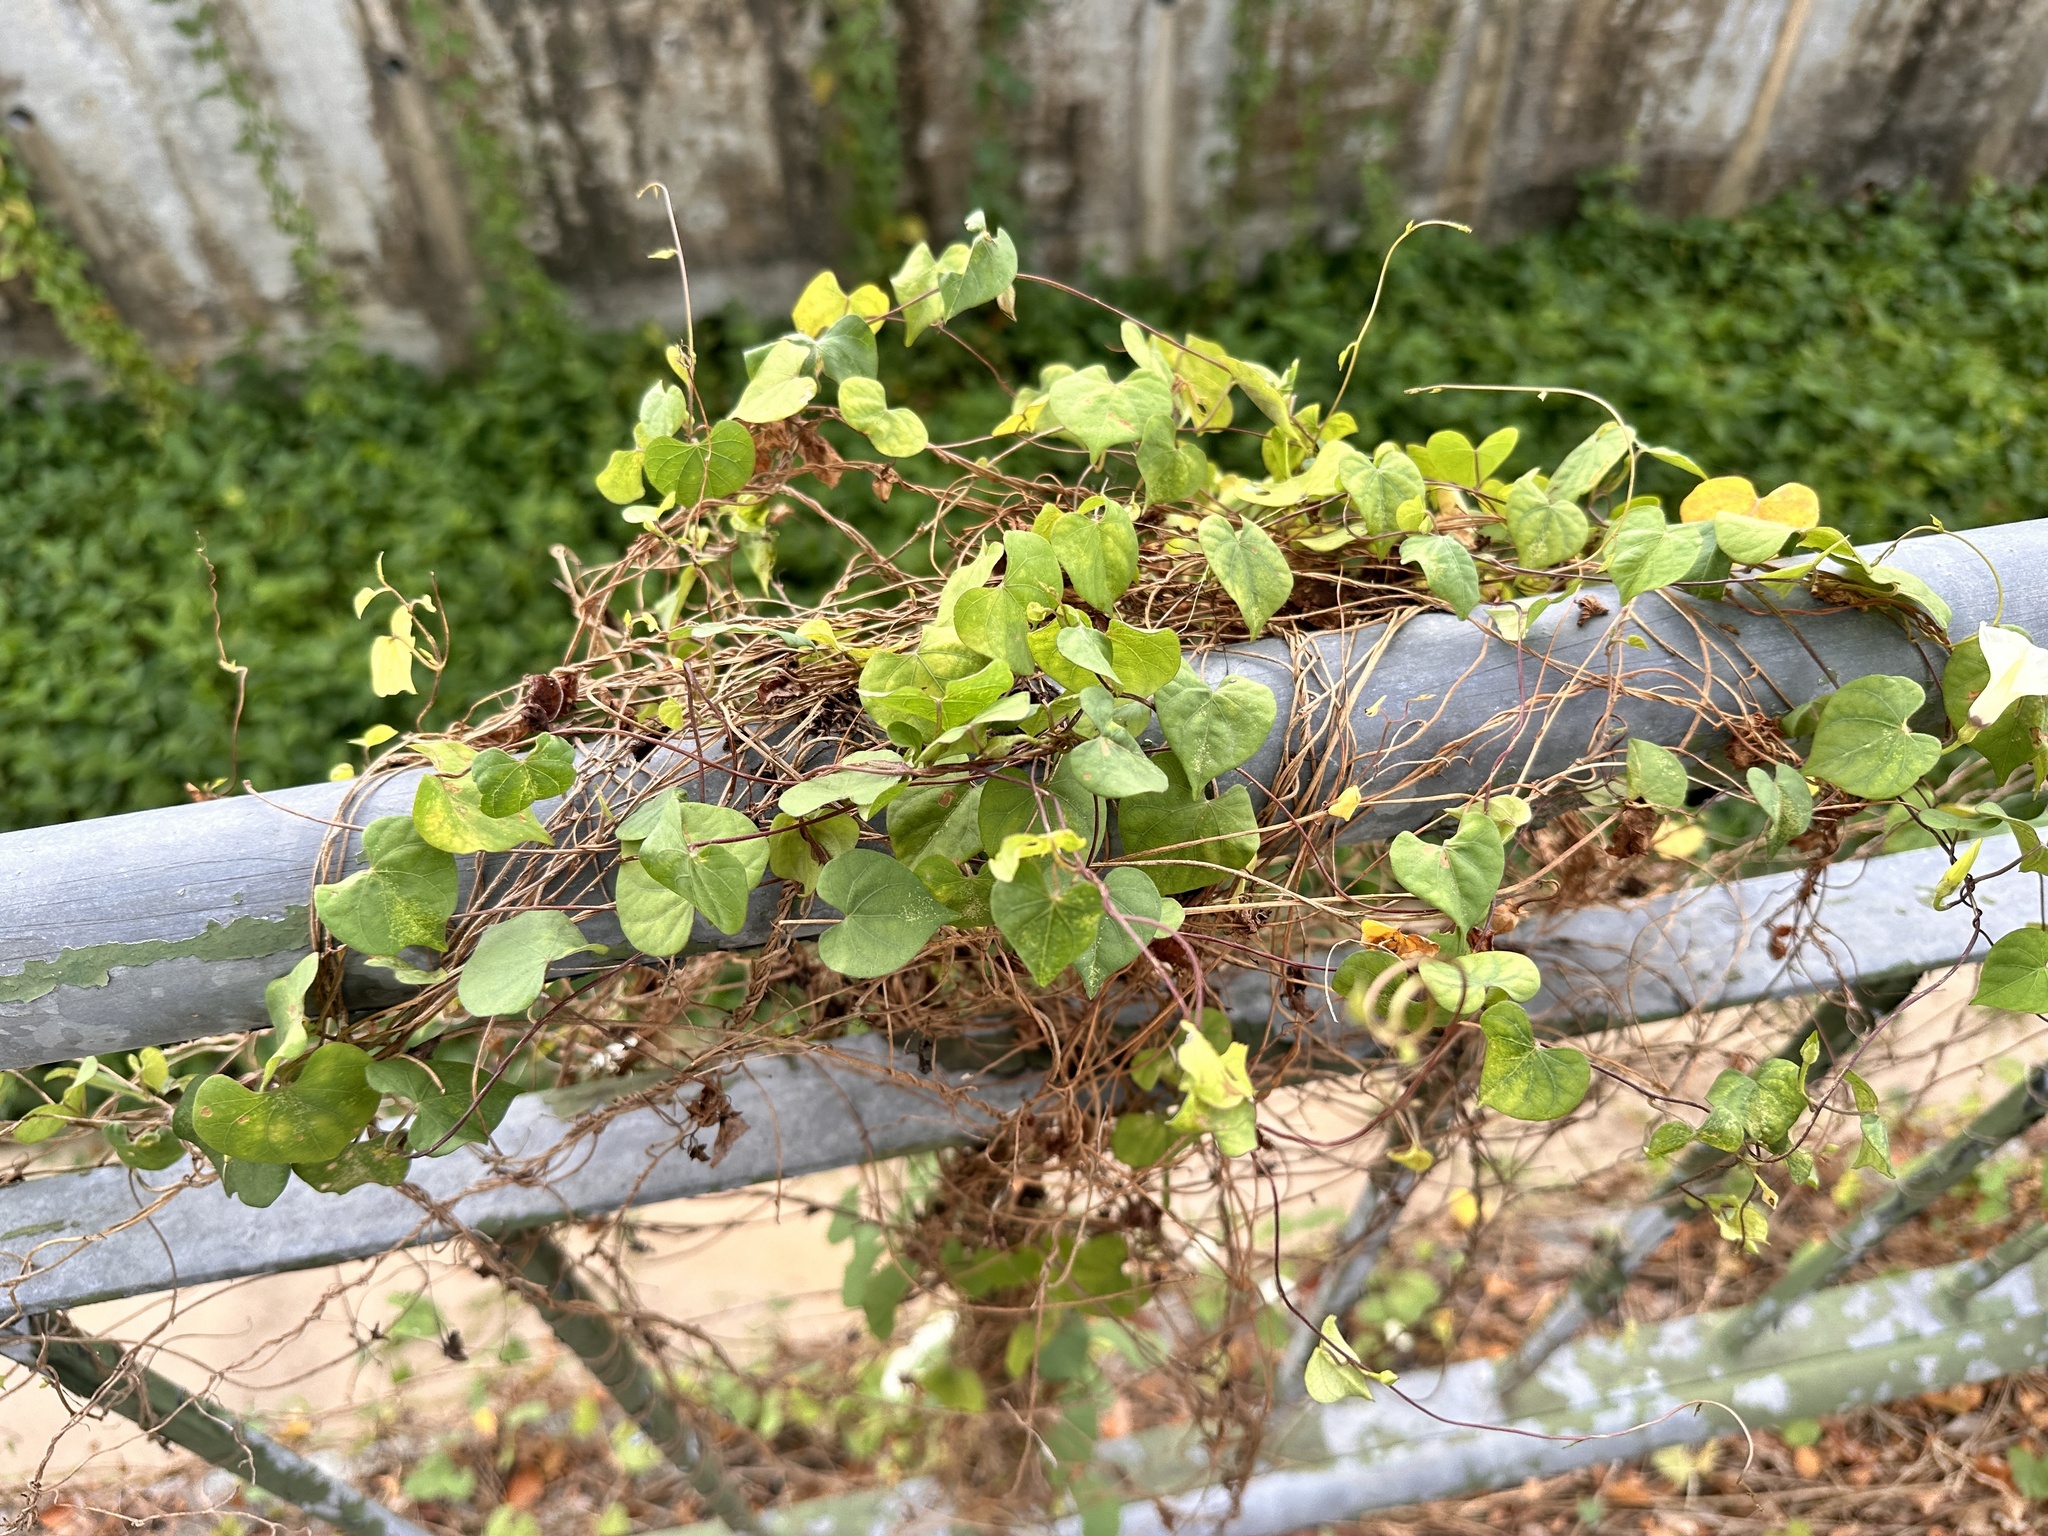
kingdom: Plantae
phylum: Tracheophyta
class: Magnoliopsida
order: Solanales
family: Convolvulaceae
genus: Ipomoea
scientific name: Ipomoea obscura
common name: Obscure morning-glory
